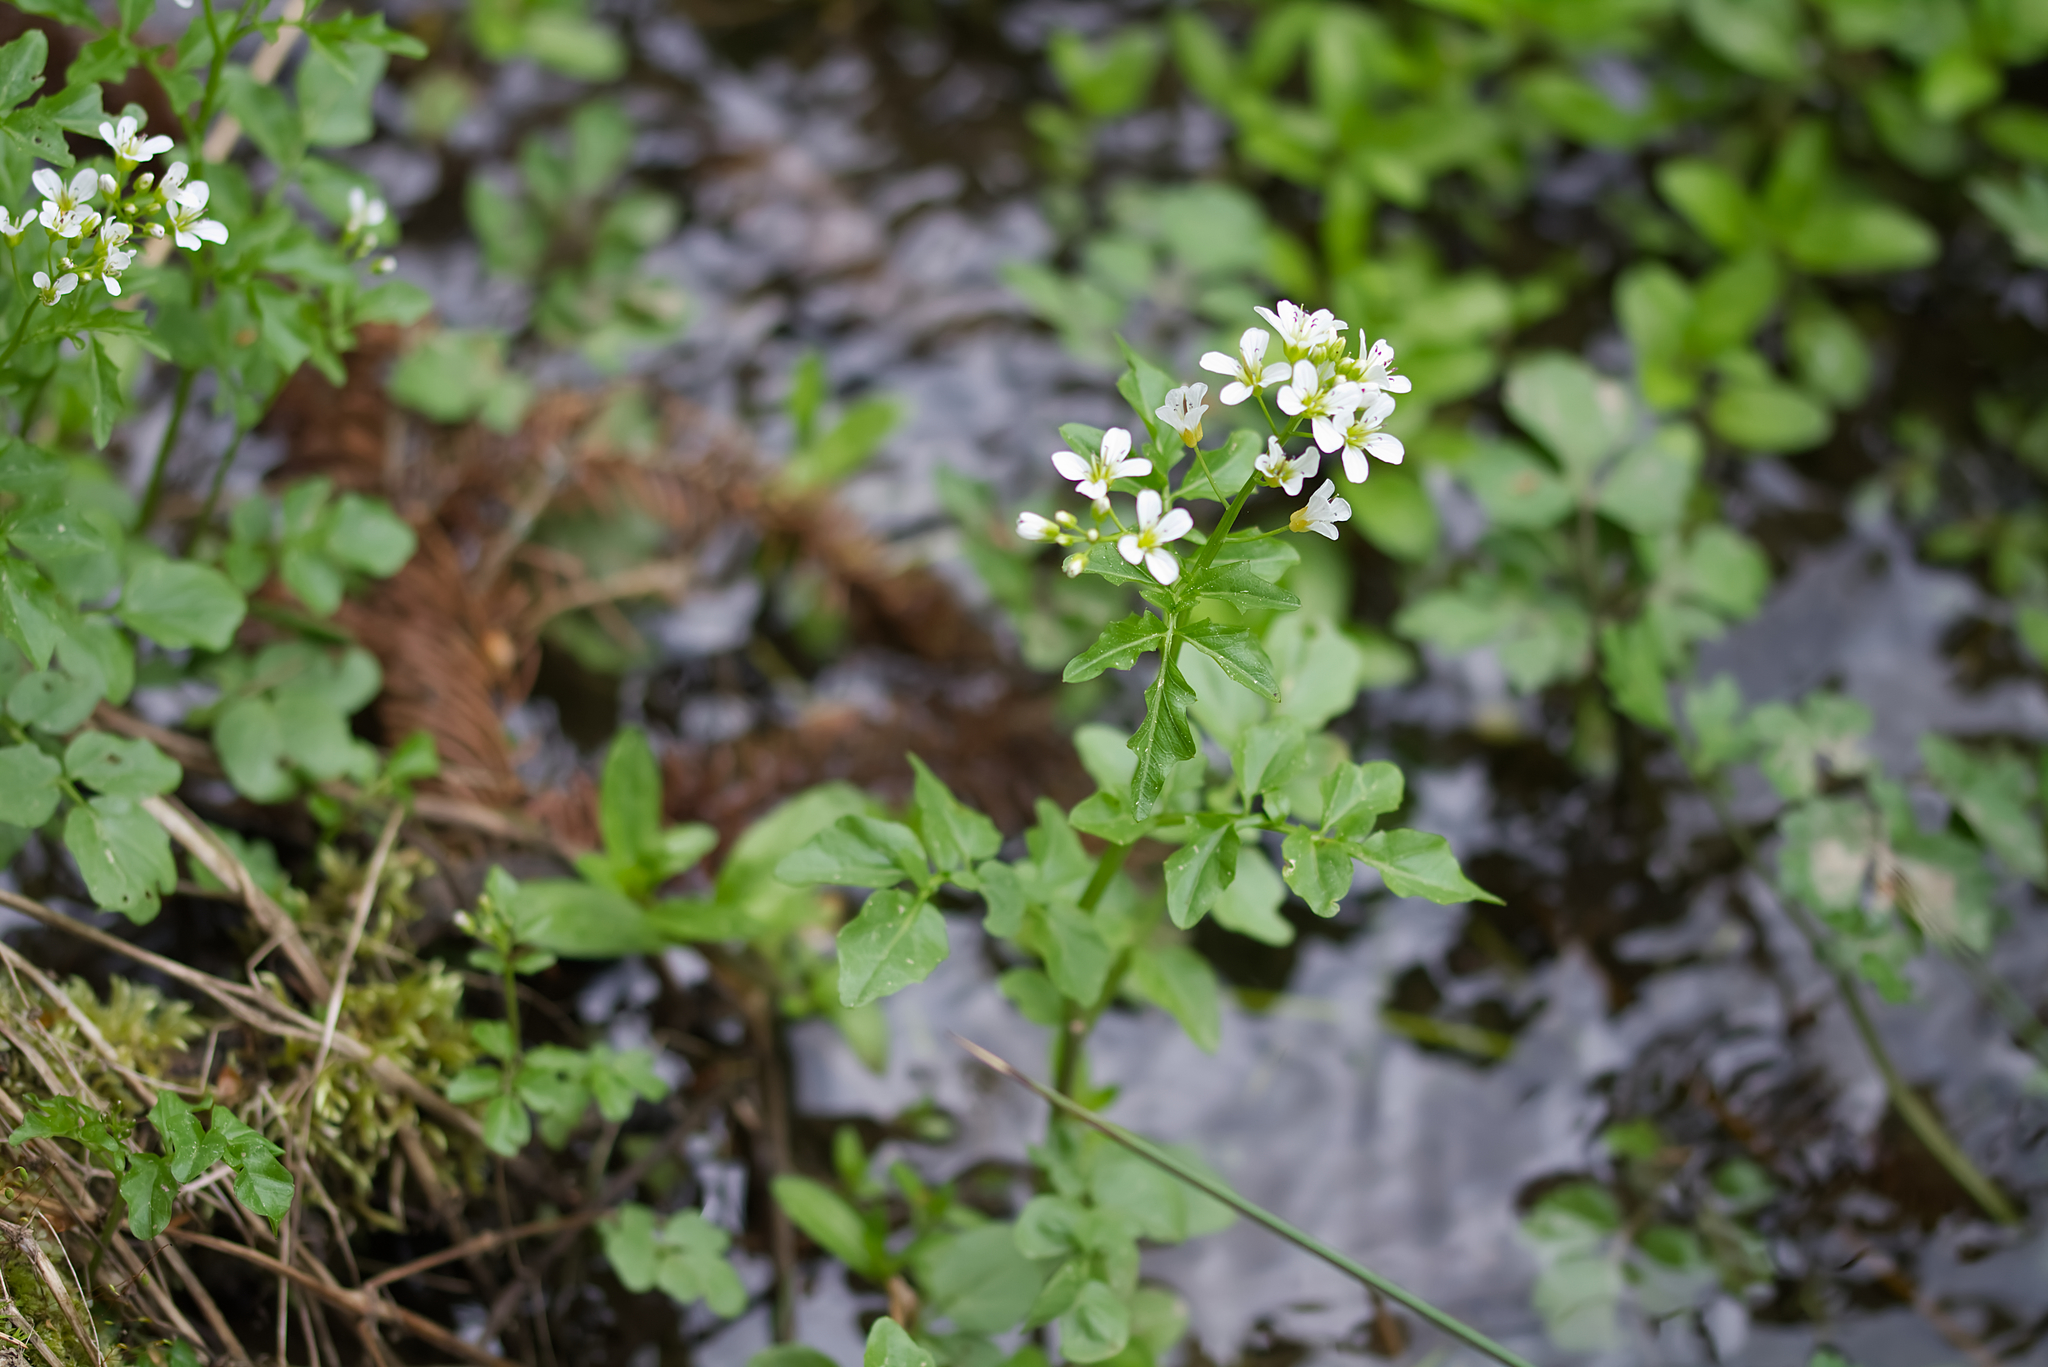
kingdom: Plantae
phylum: Tracheophyta
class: Magnoliopsida
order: Brassicales
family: Brassicaceae
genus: Cardamine
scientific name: Cardamine amara
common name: Large bitter-cress
